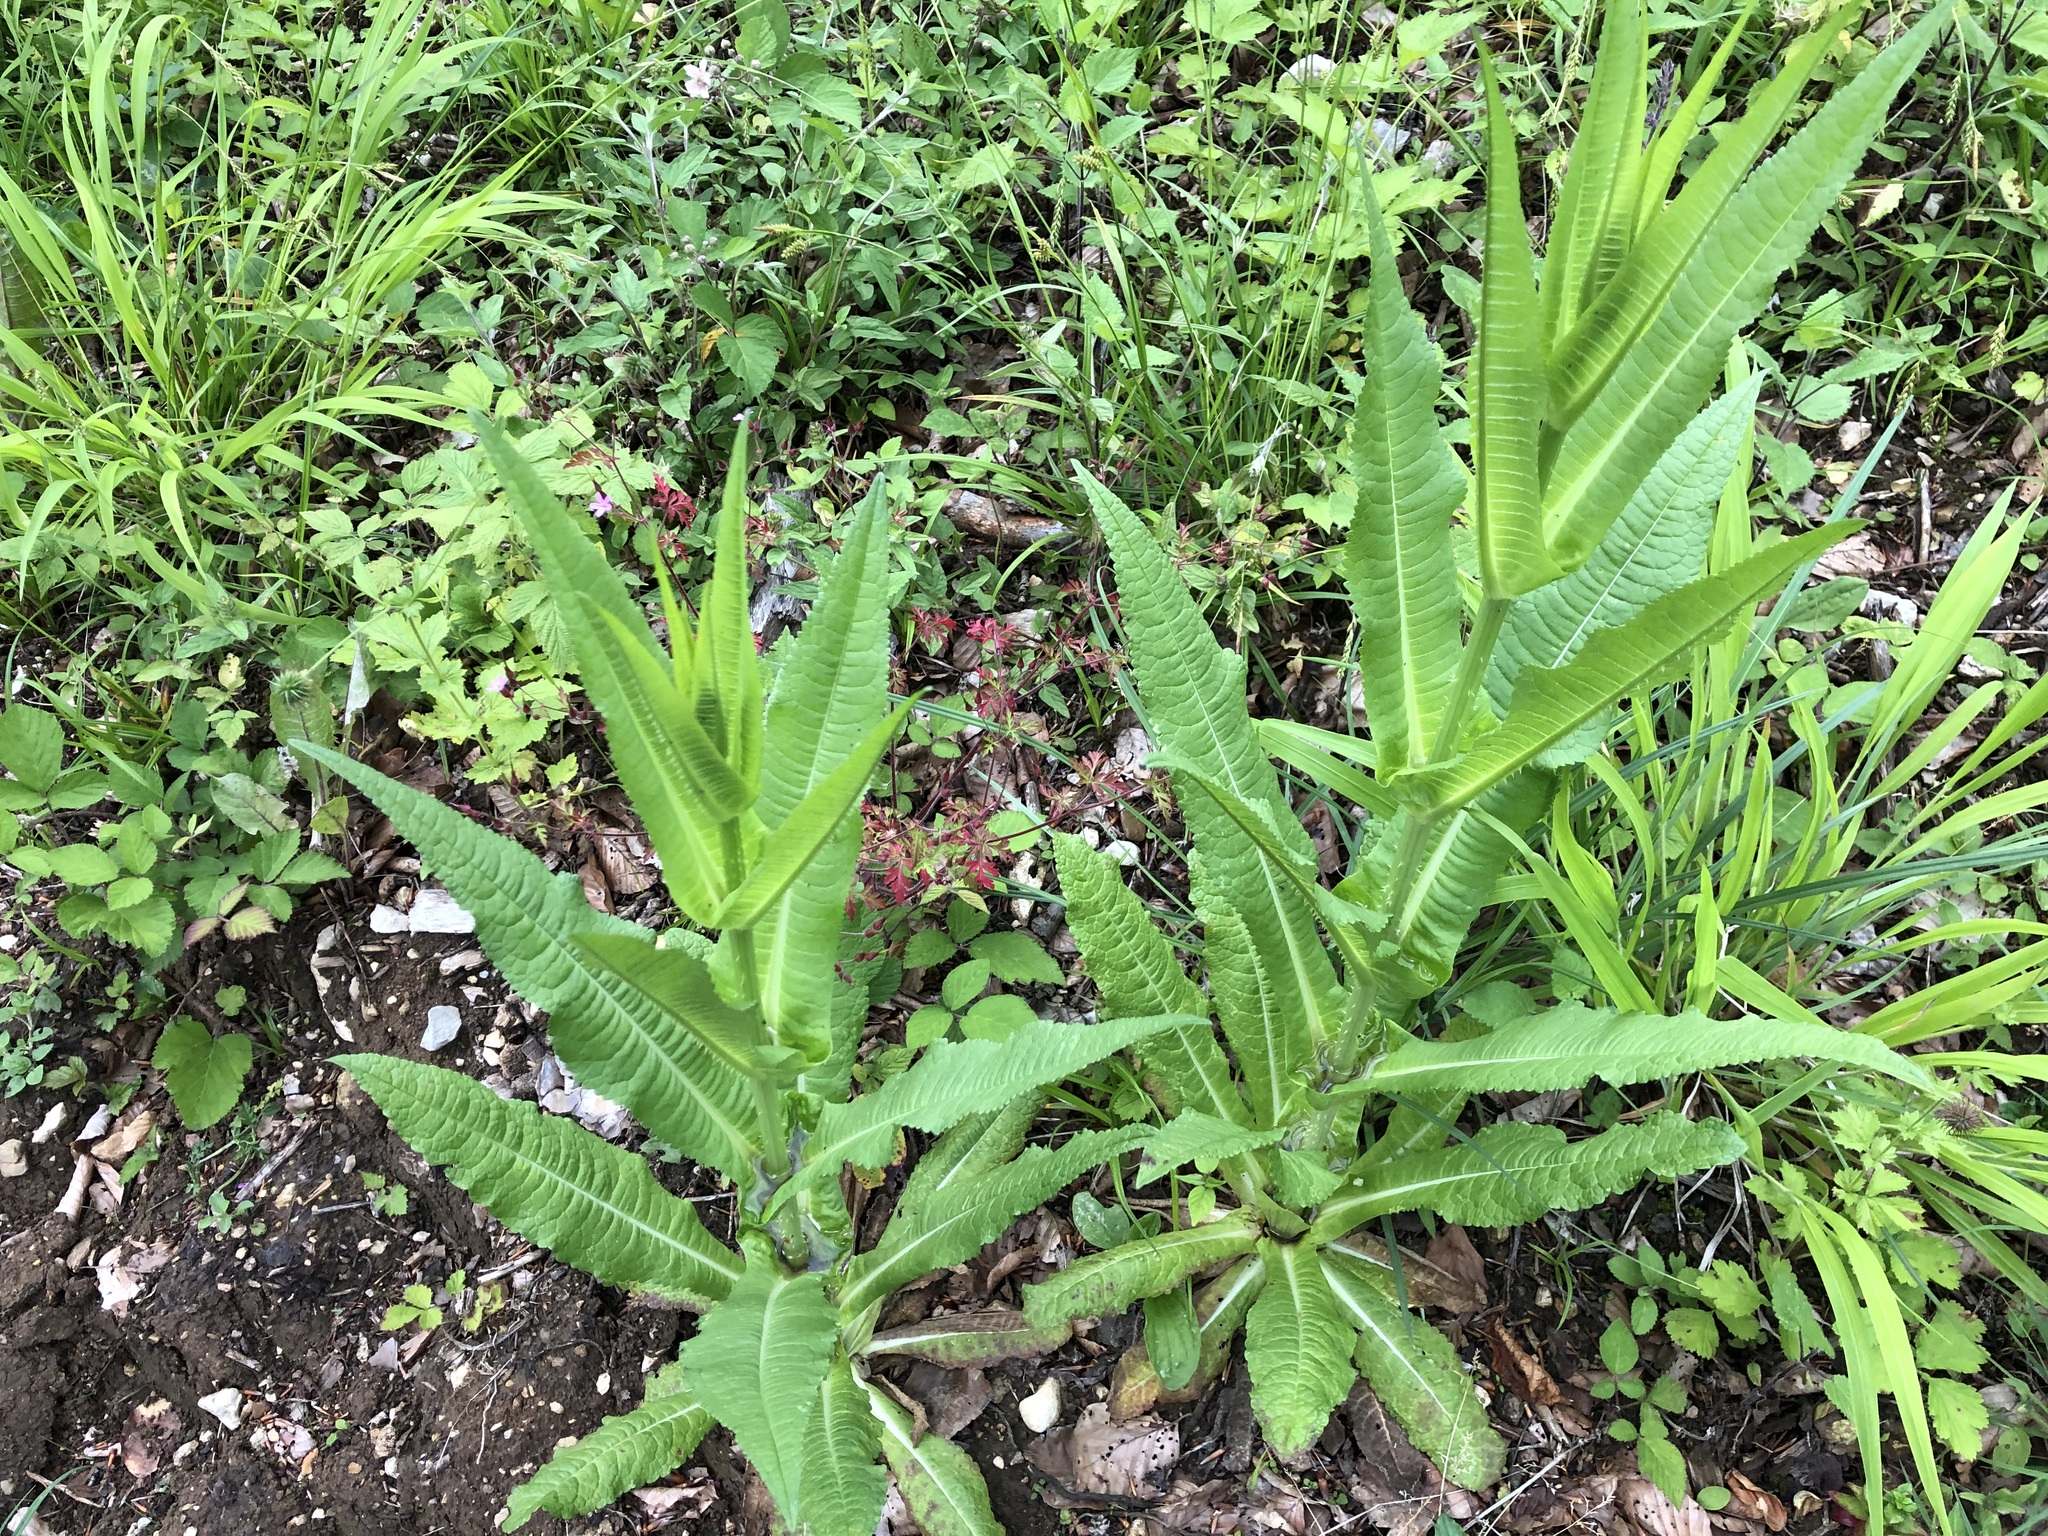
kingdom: Plantae
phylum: Tracheophyta
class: Magnoliopsida
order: Dipsacales
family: Caprifoliaceae
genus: Dipsacus
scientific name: Dipsacus fullonum
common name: Teasel
